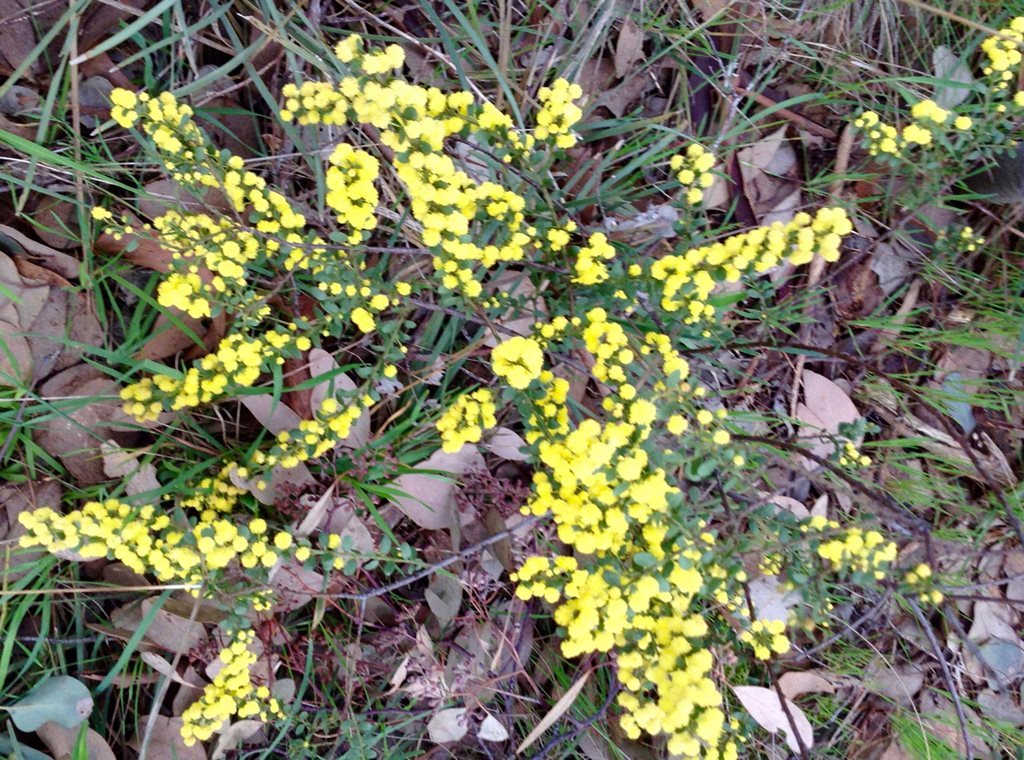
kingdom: Plantae
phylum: Tracheophyta
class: Magnoliopsida
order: Fabales
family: Fabaceae
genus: Acacia
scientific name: Acacia acinacea
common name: Gold-dust acacia
